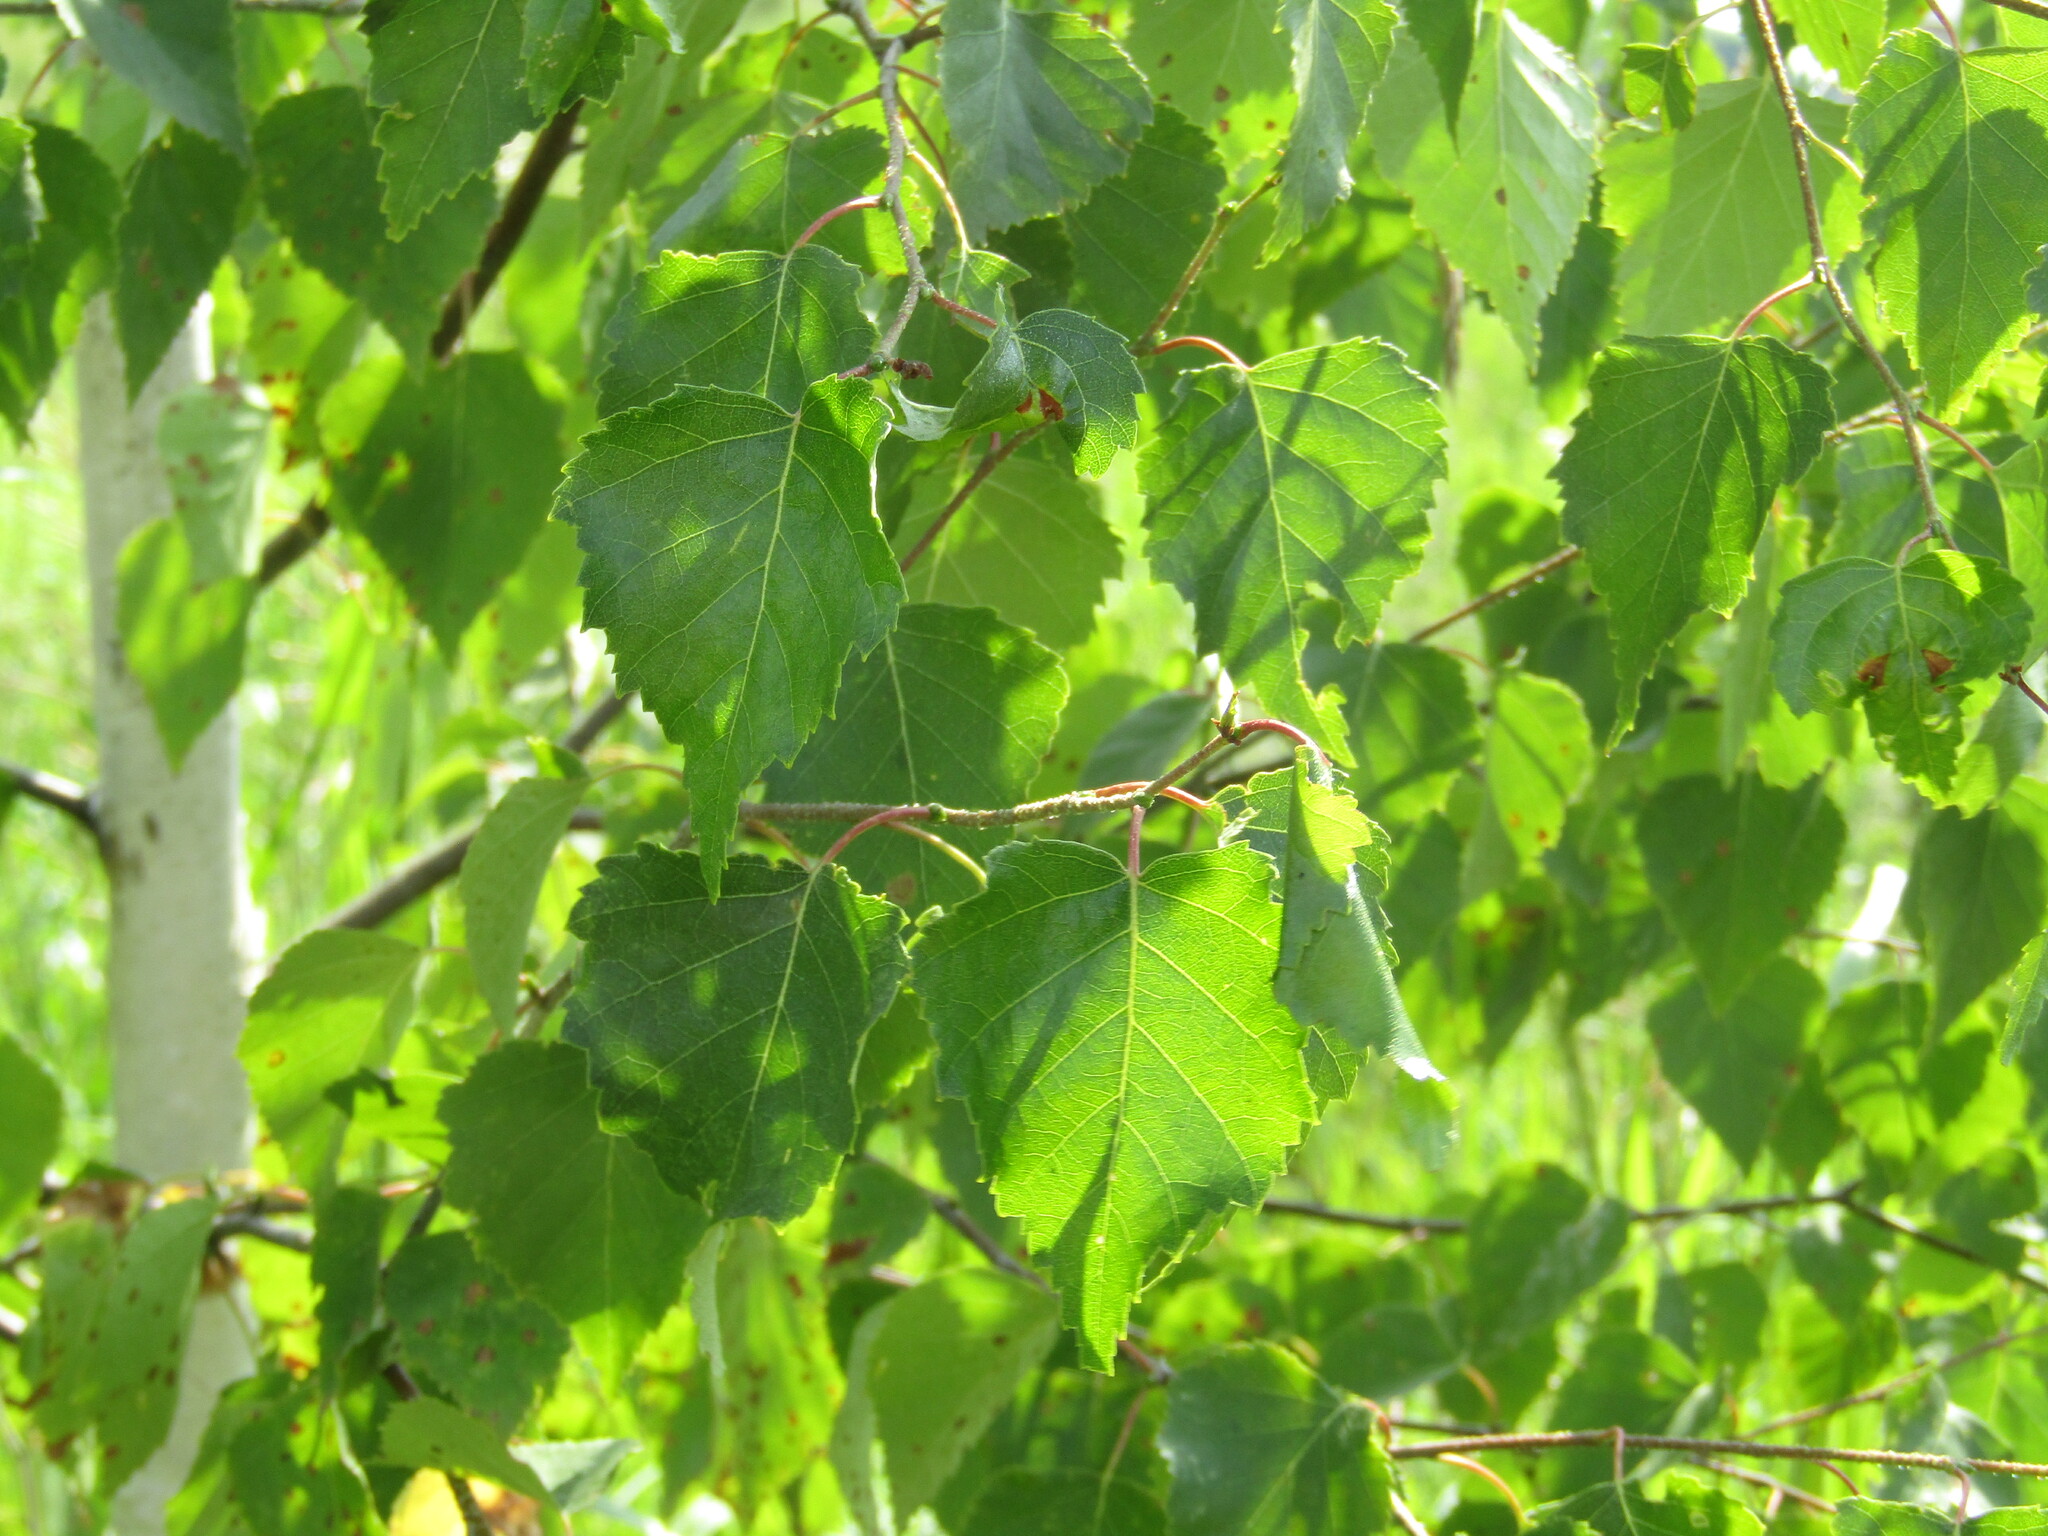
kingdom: Plantae
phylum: Tracheophyta
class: Magnoliopsida
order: Fagales
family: Betulaceae
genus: Betula
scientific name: Betula pendula
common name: Silver birch
